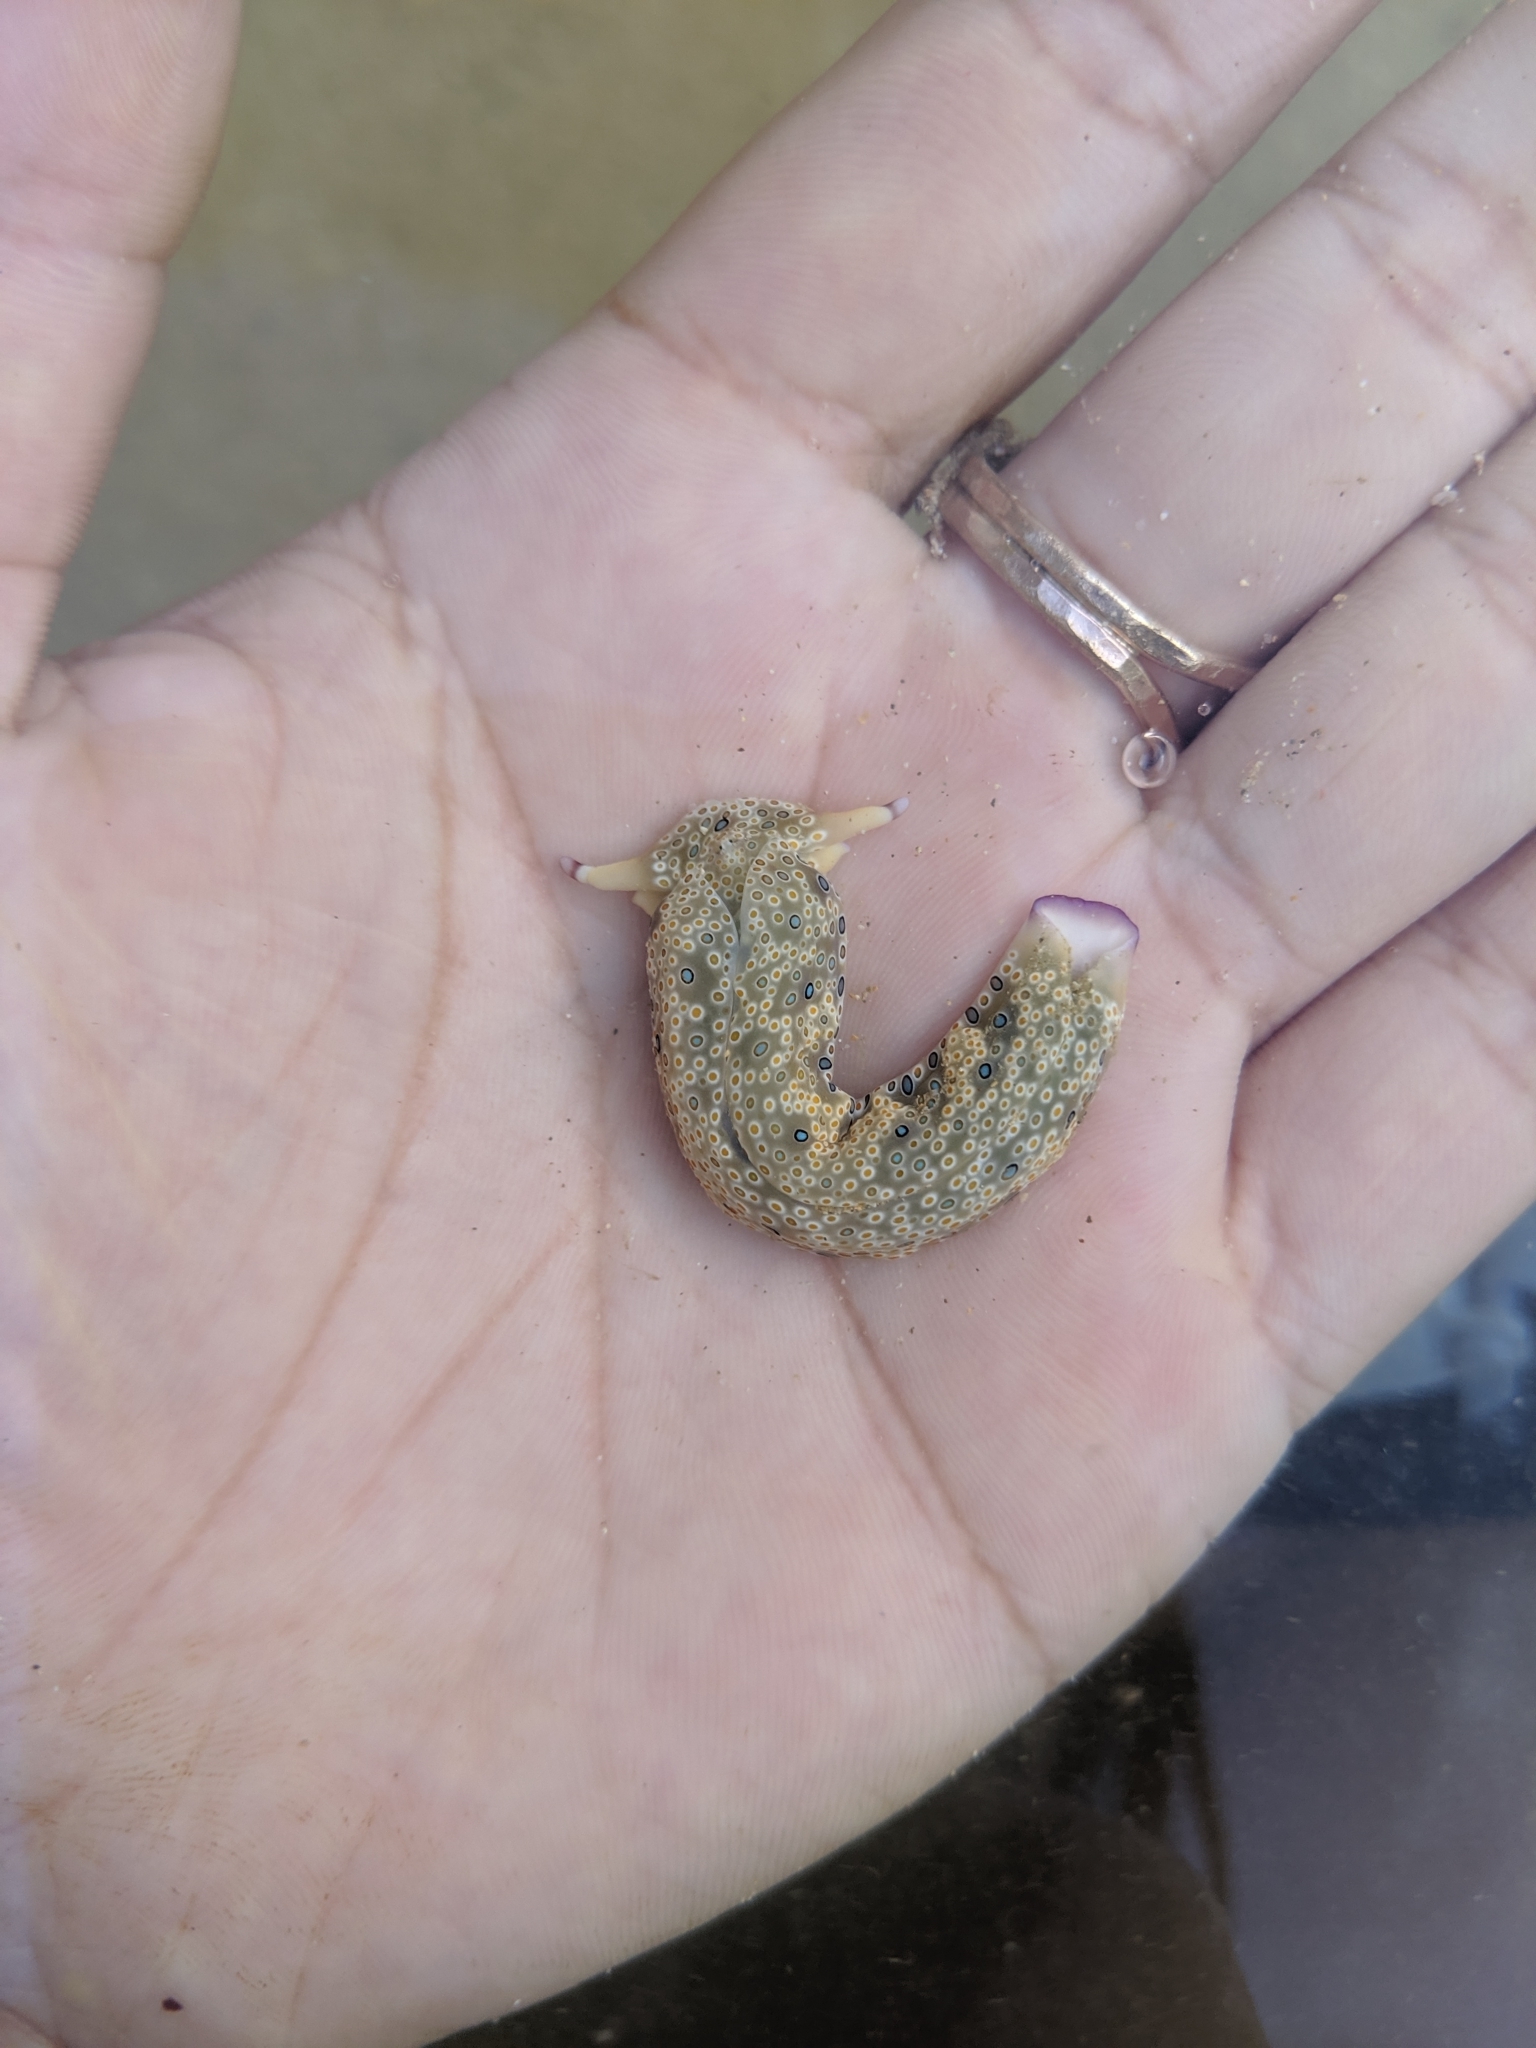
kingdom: Animalia
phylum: Mollusca
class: Gastropoda
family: Plakobranchidae
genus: Plakobranchus
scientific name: Plakobranchus ocellatus
